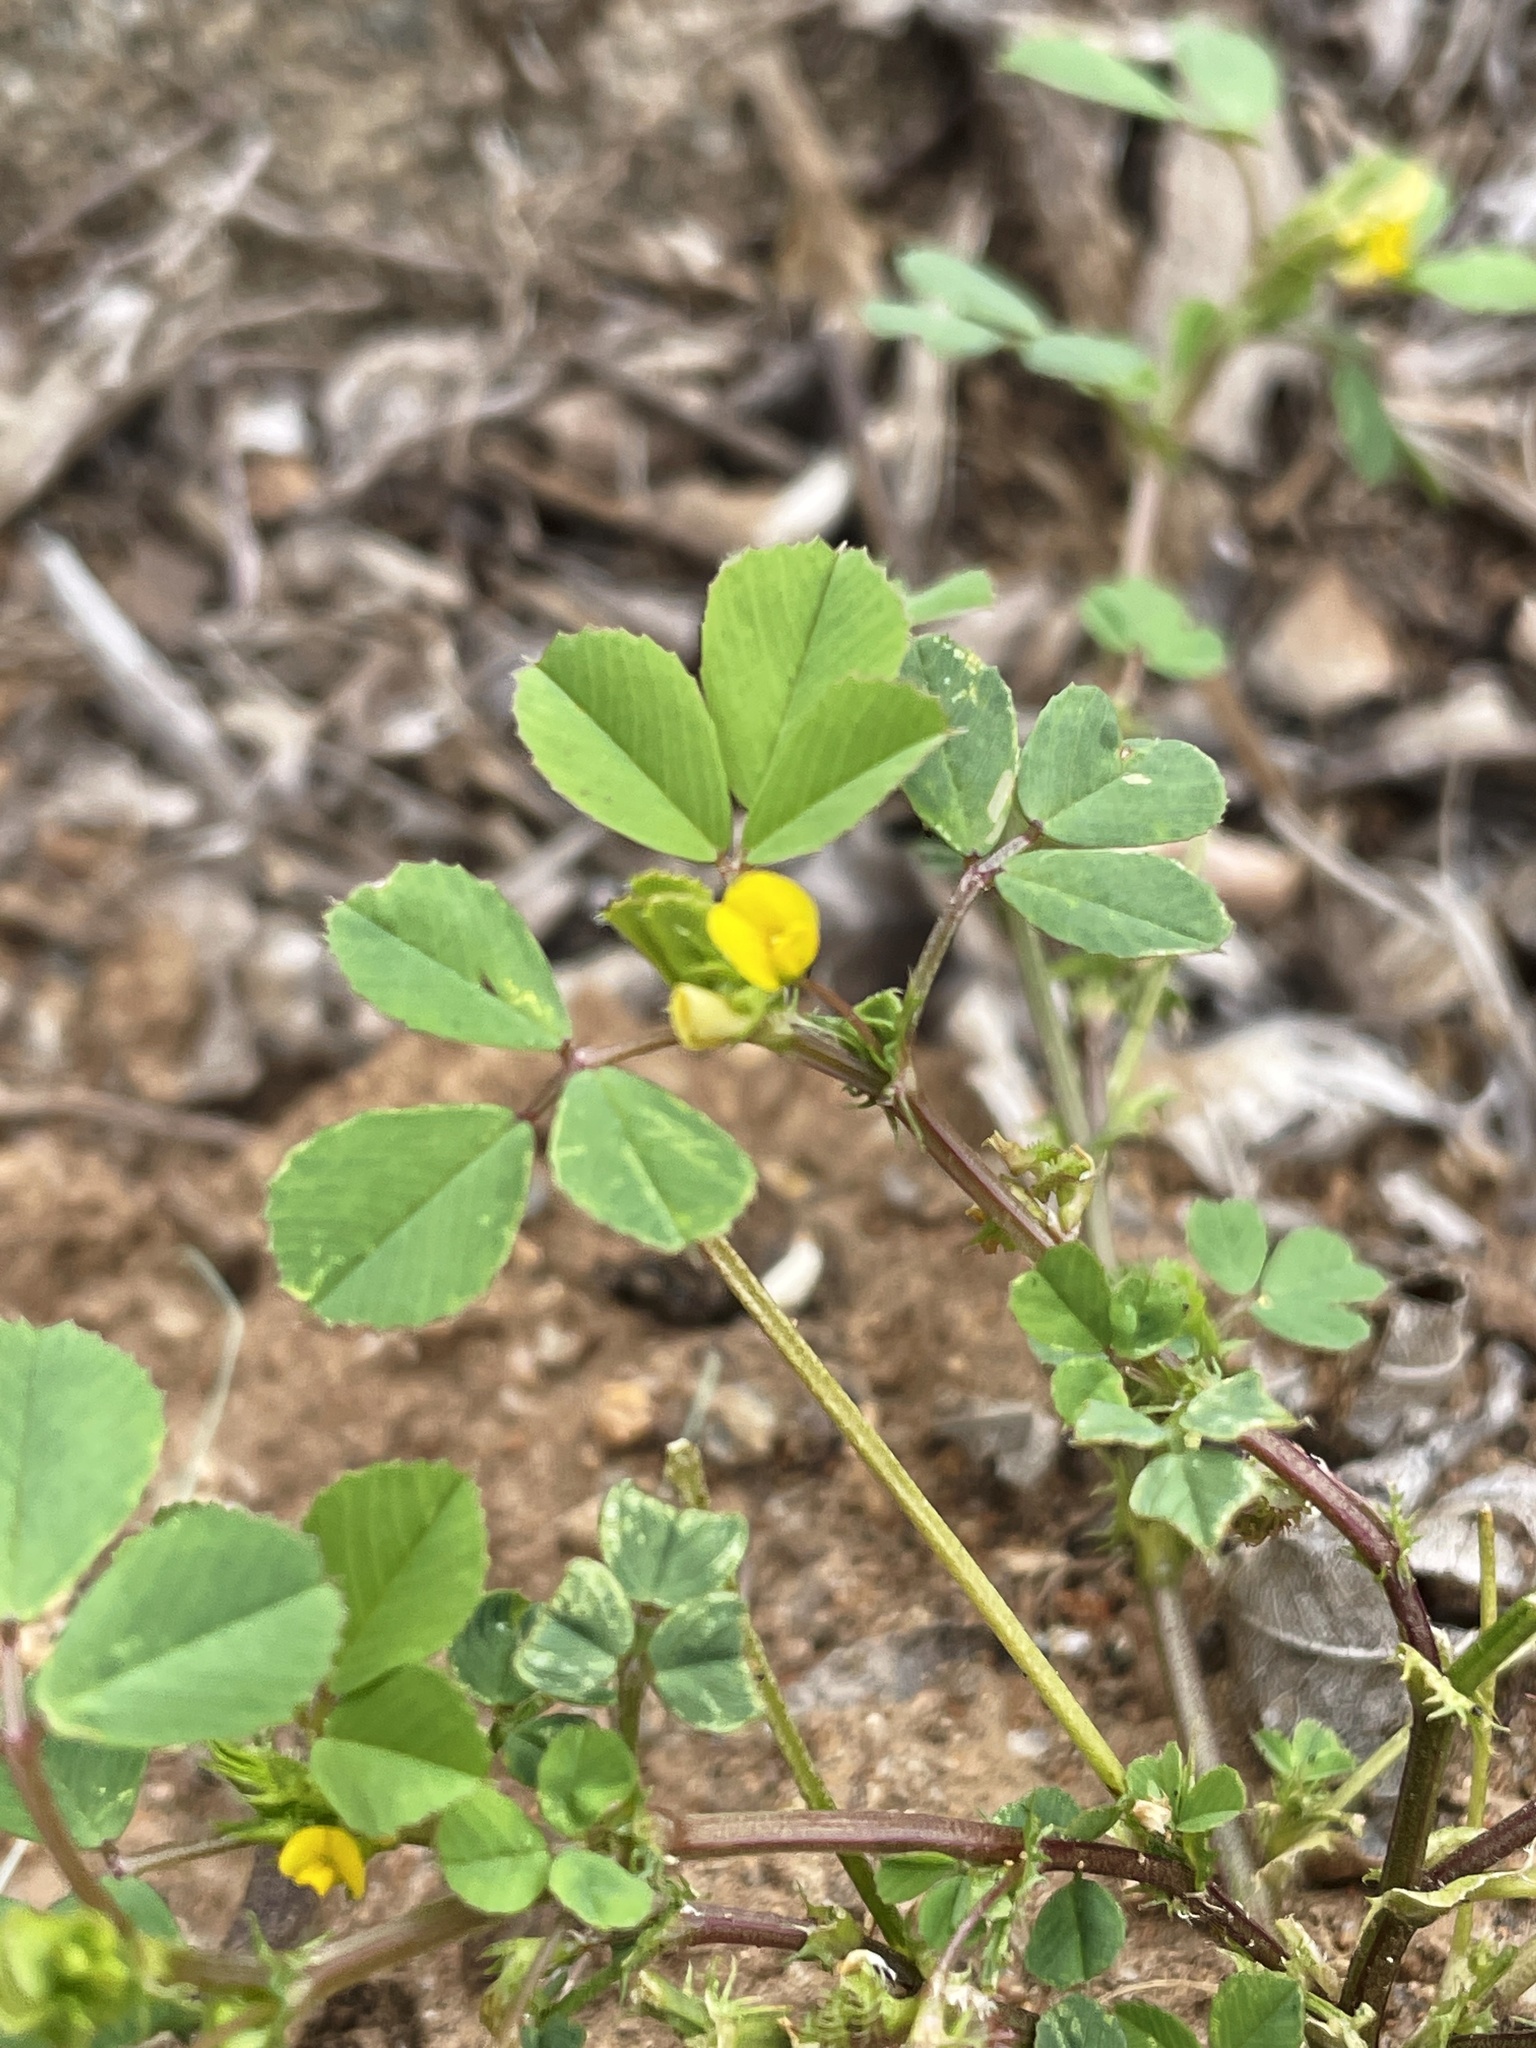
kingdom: Plantae
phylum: Tracheophyta
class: Magnoliopsida
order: Fabales
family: Fabaceae
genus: Medicago
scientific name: Medicago polymorpha
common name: Burclover
